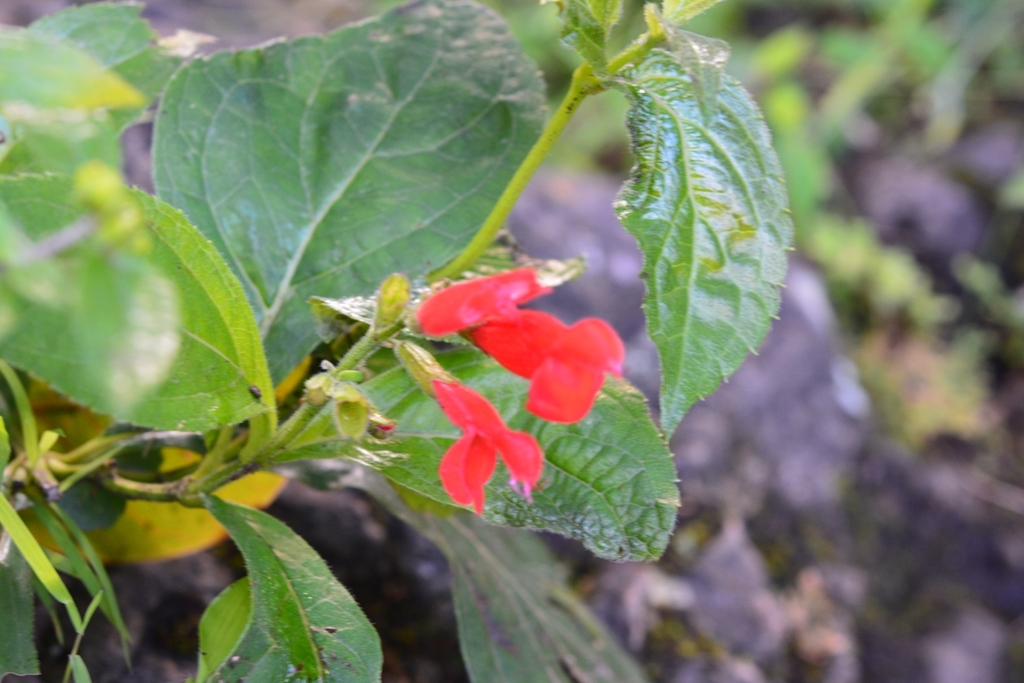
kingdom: Plantae
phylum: Tracheophyta
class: Magnoliopsida
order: Lamiales
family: Lamiaceae
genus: Salvia
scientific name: Salvia miniata
